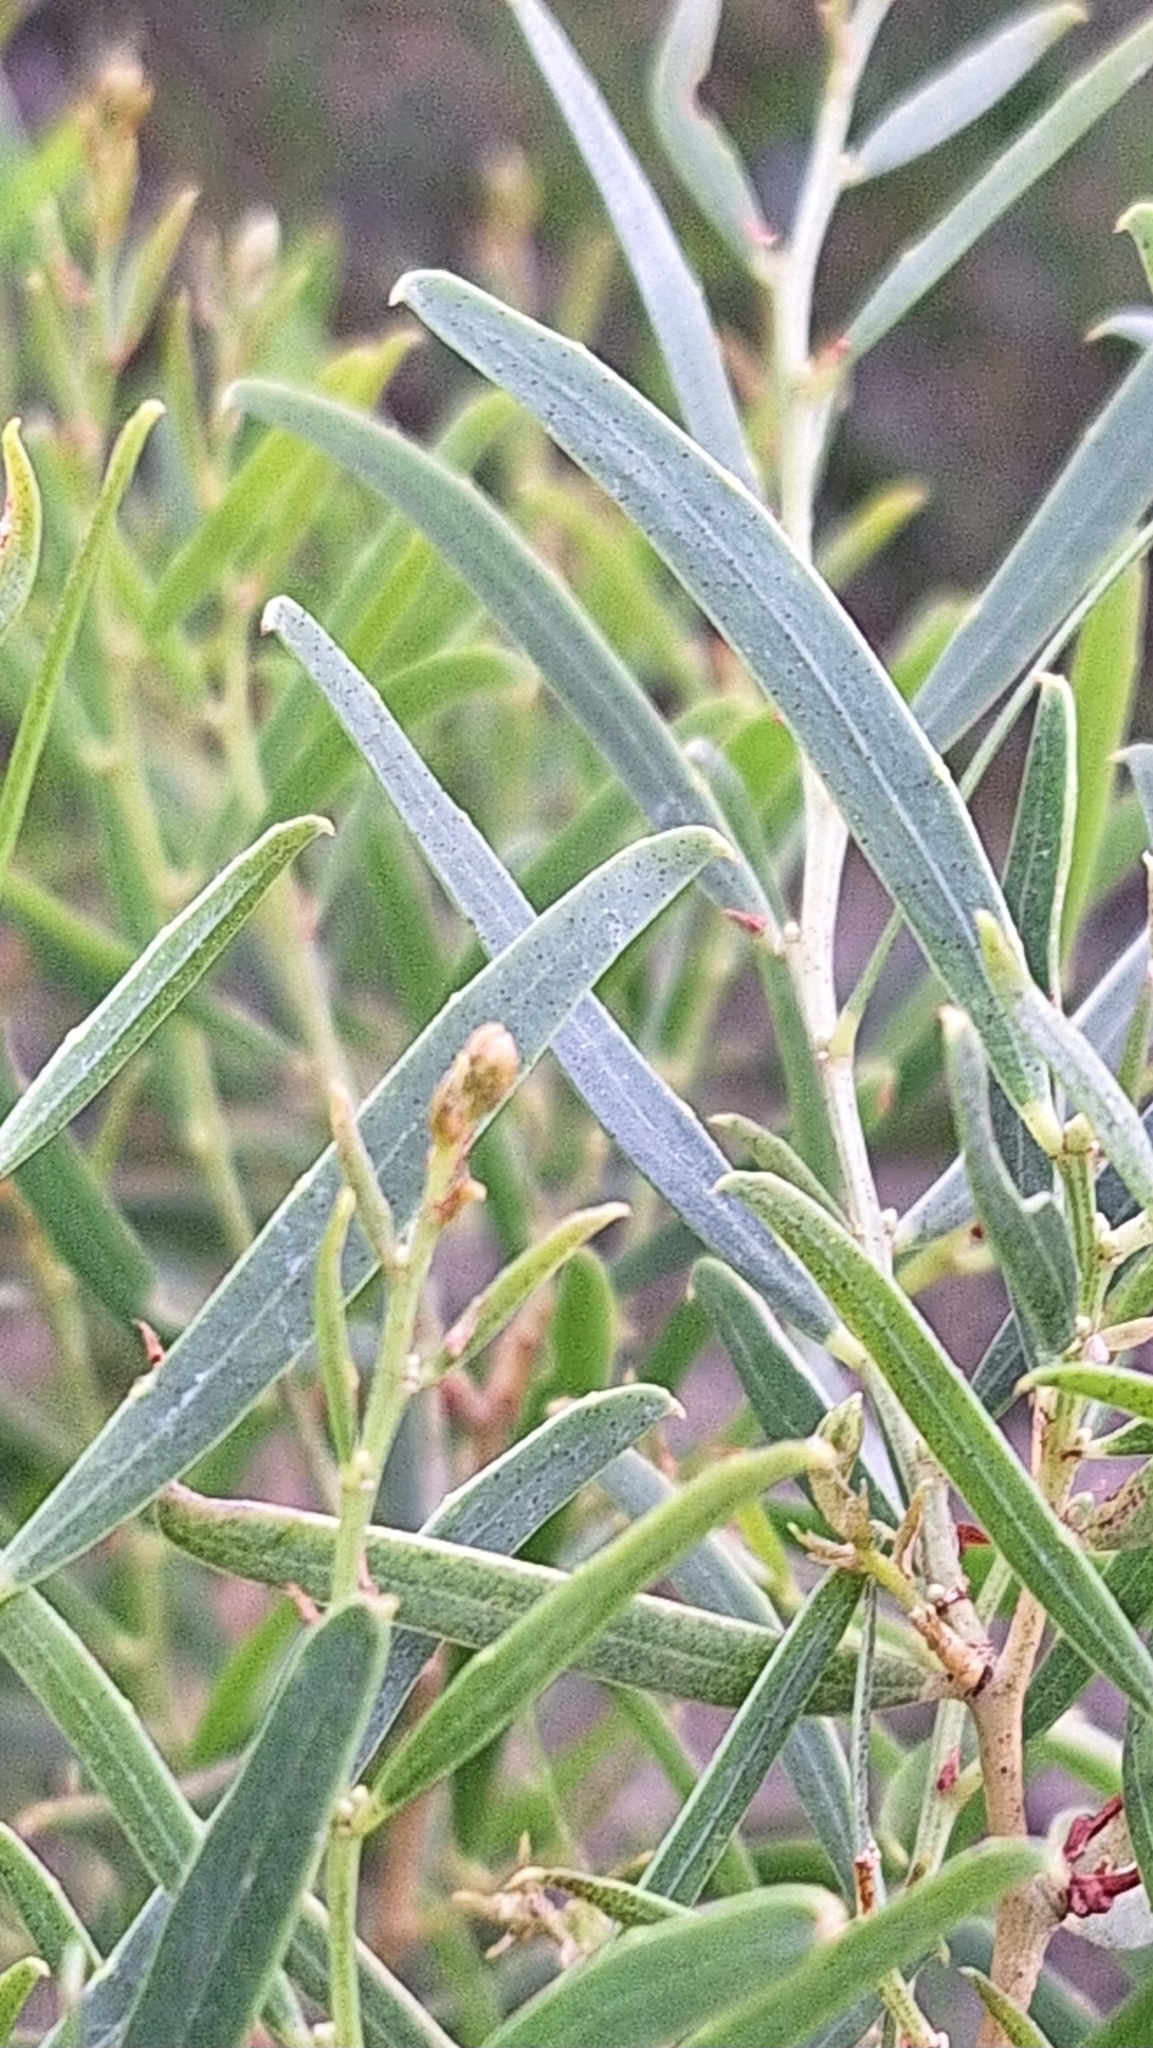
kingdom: Plantae
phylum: Tracheophyta
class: Magnoliopsida
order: Fabales
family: Fabaceae
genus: Acacia
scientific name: Acacia ligulata
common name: Dune wattle
